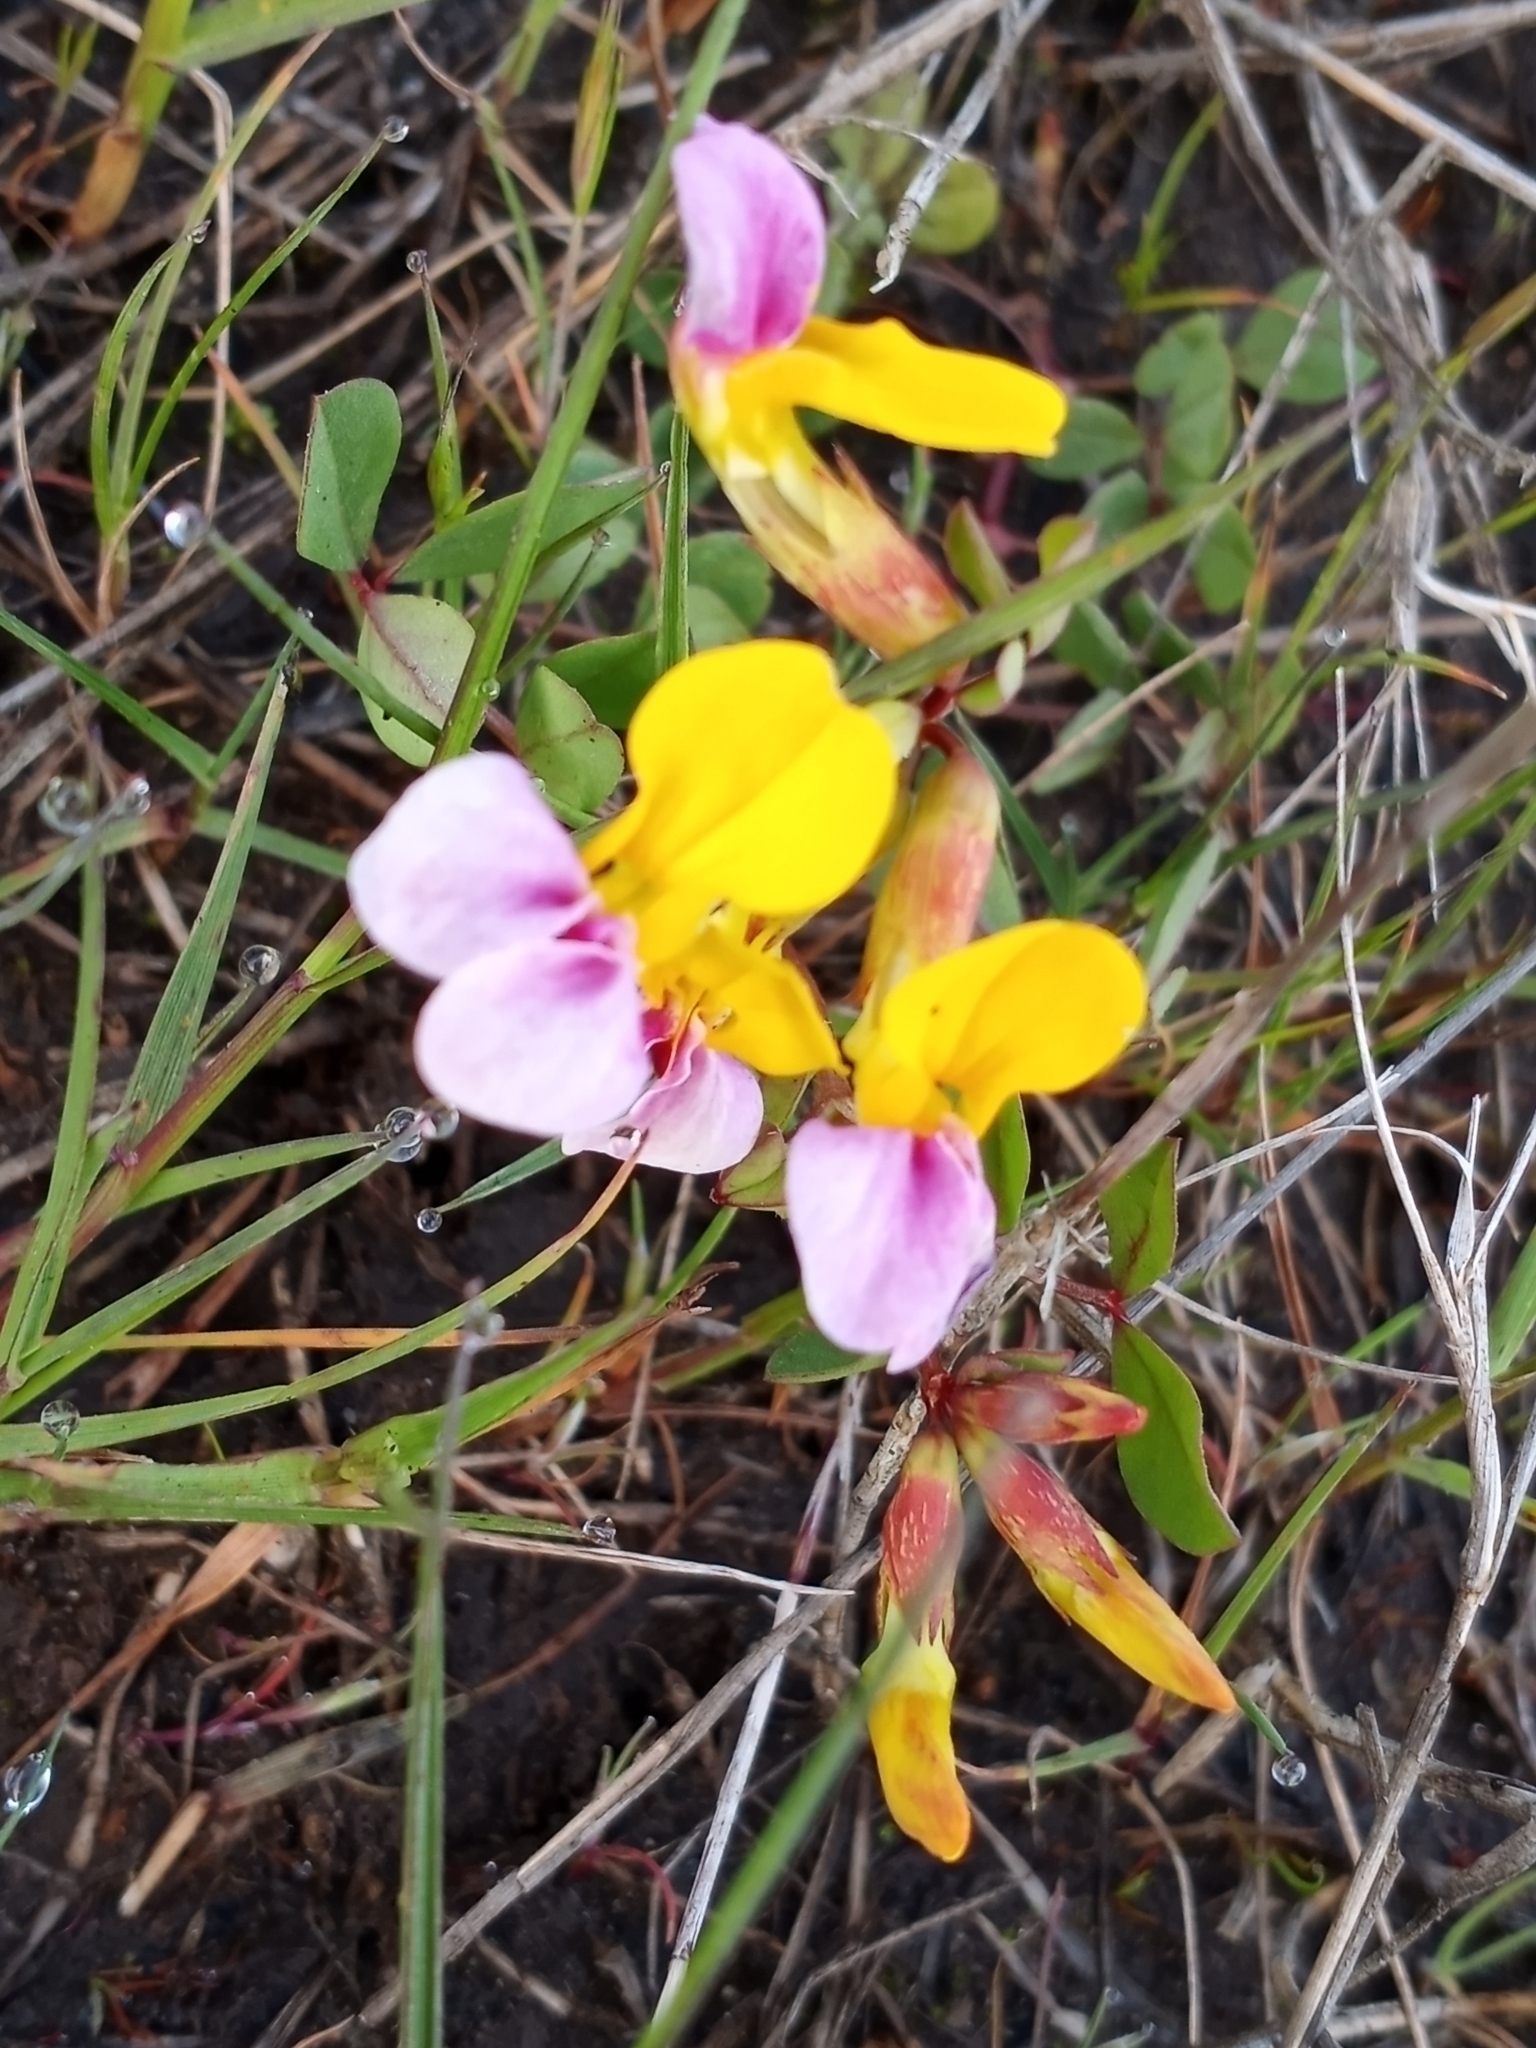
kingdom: Plantae
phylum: Tracheophyta
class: Magnoliopsida
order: Fabales
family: Fabaceae
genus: Hosackia
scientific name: Hosackia gracilis
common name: Seaside bird's-foot lotus
